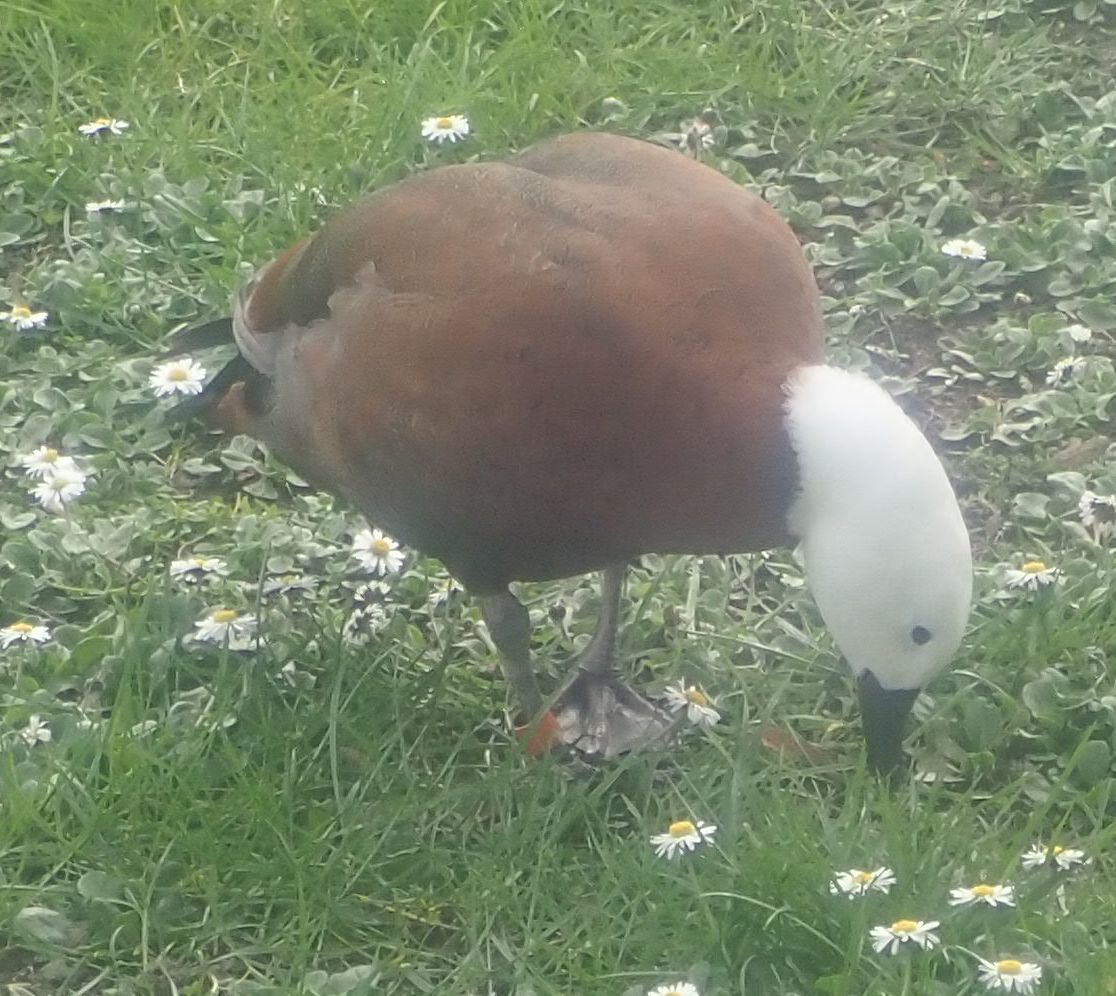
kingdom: Animalia
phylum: Chordata
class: Aves
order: Anseriformes
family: Anatidae
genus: Tadorna
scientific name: Tadorna variegata
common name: Paradise shelduck
